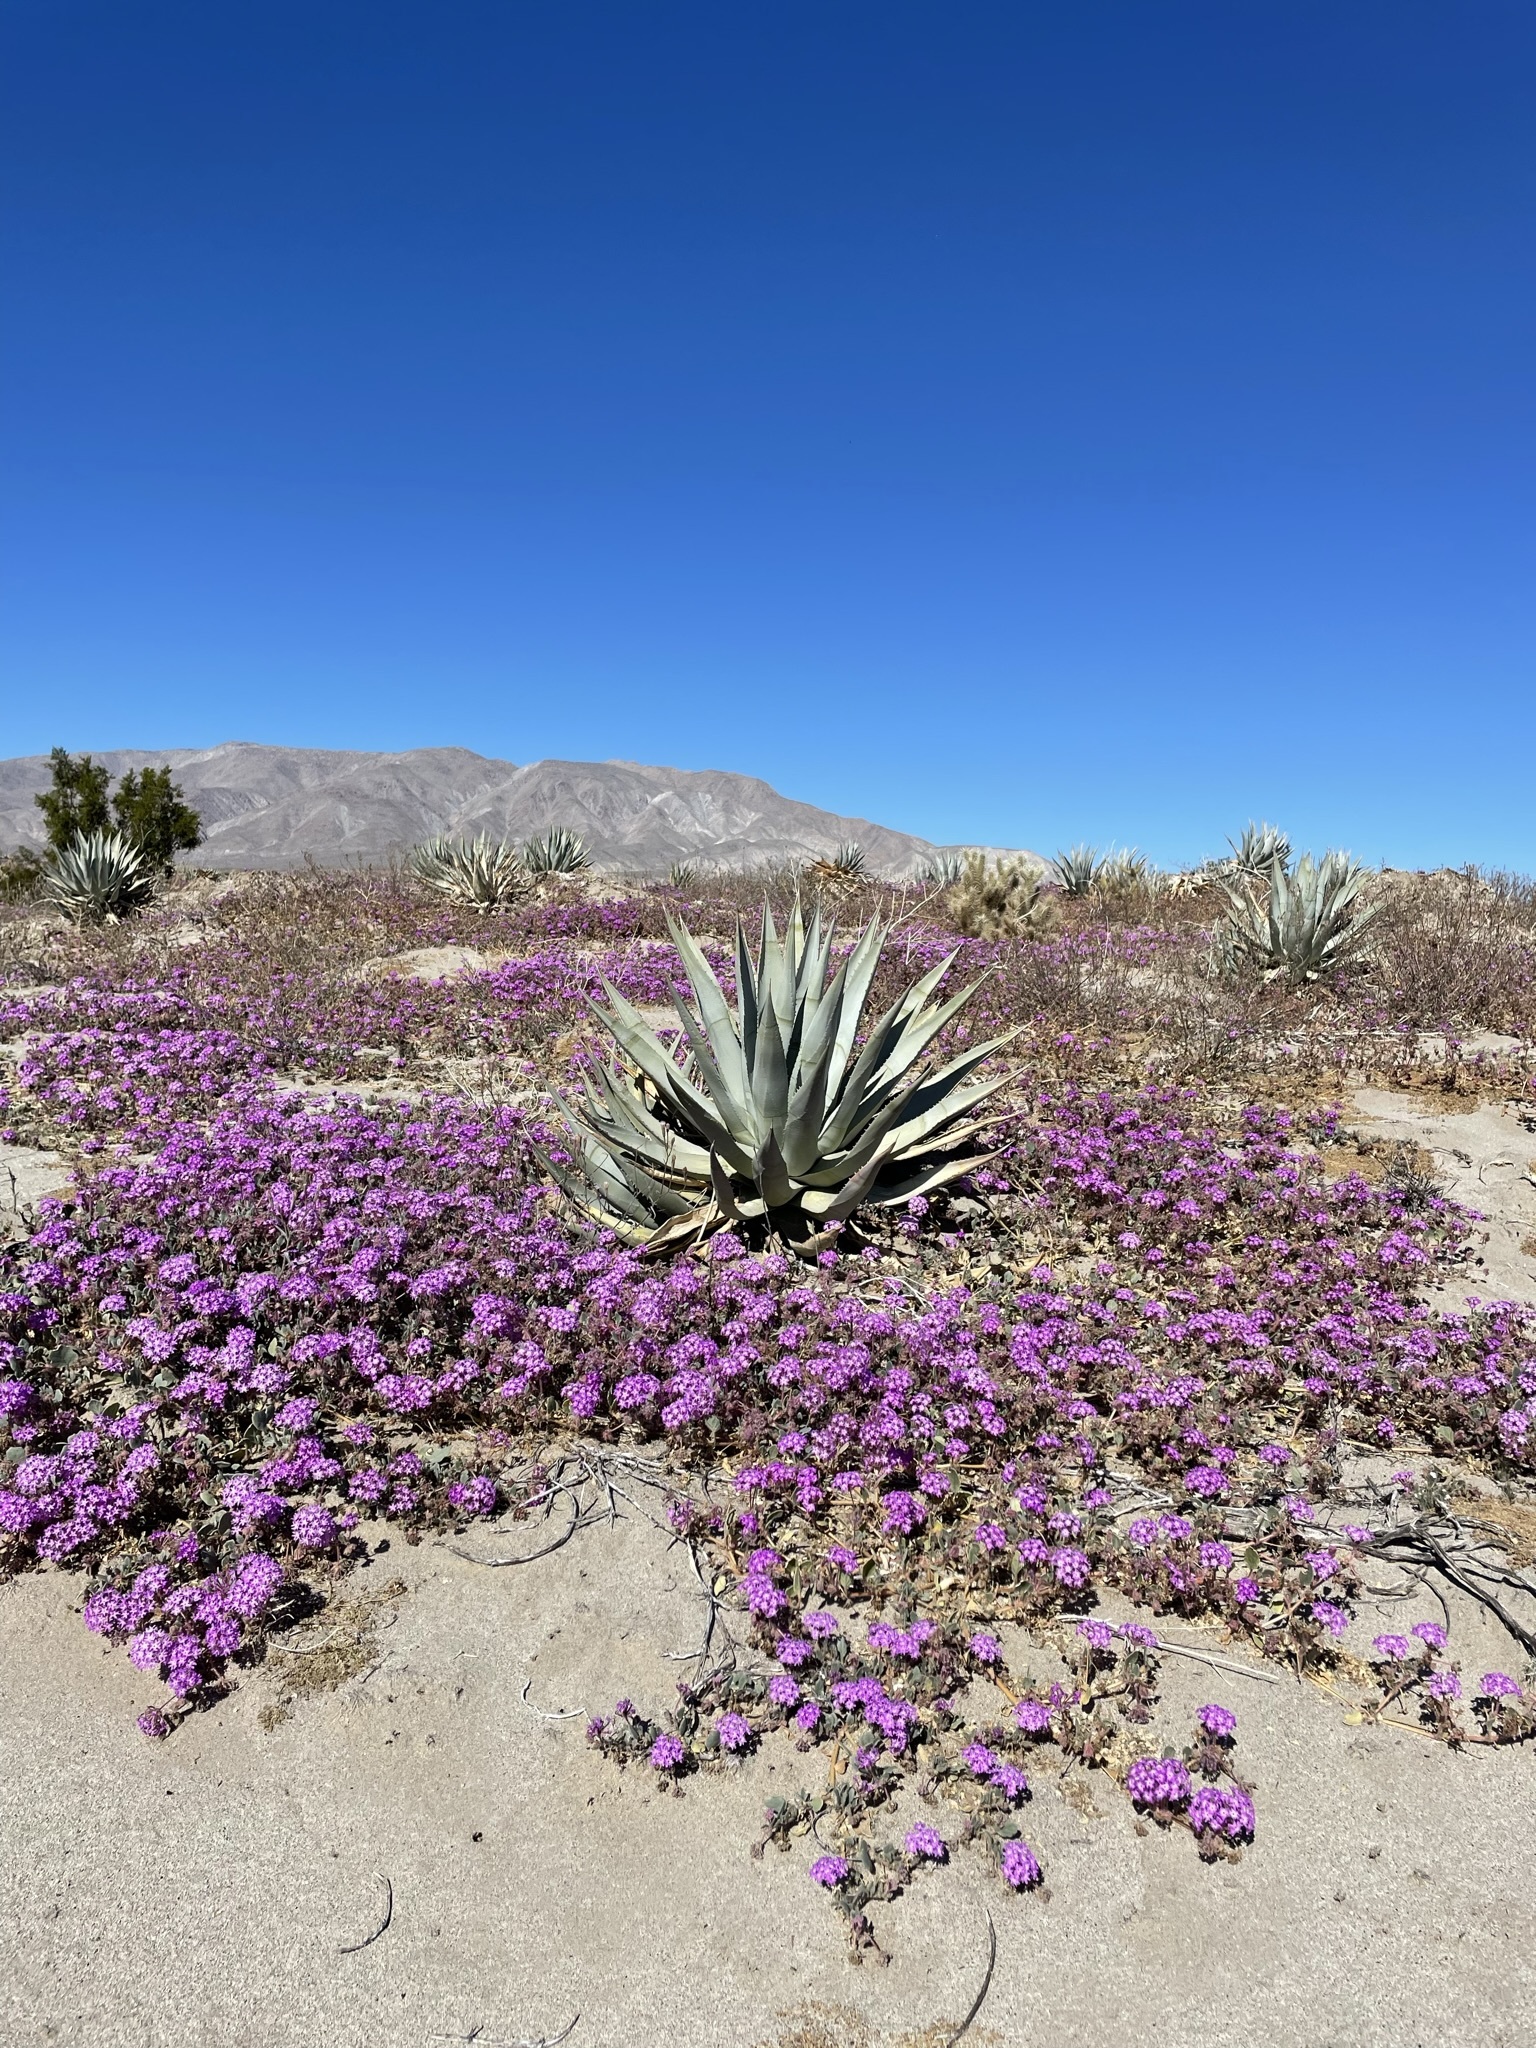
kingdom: Plantae
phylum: Tracheophyta
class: Magnoliopsida
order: Caryophyllales
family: Nyctaginaceae
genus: Abronia
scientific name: Abronia villosa
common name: Desert sand-verbena
